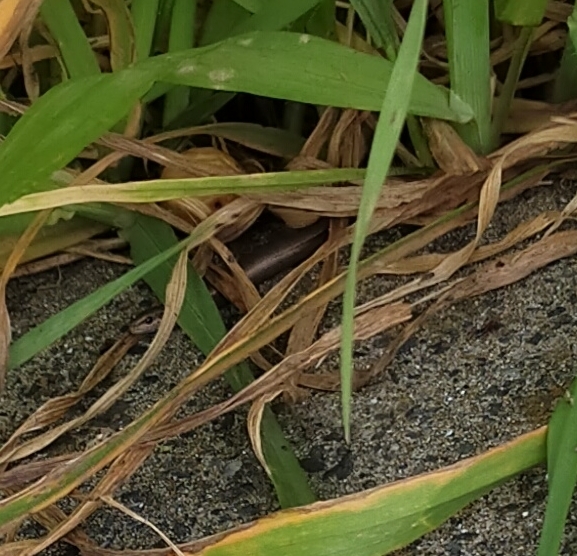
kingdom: Animalia
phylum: Chordata
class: Squamata
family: Scincidae
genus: Ablepharus
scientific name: Ablepharus kitaibelii
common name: Juniper skink
